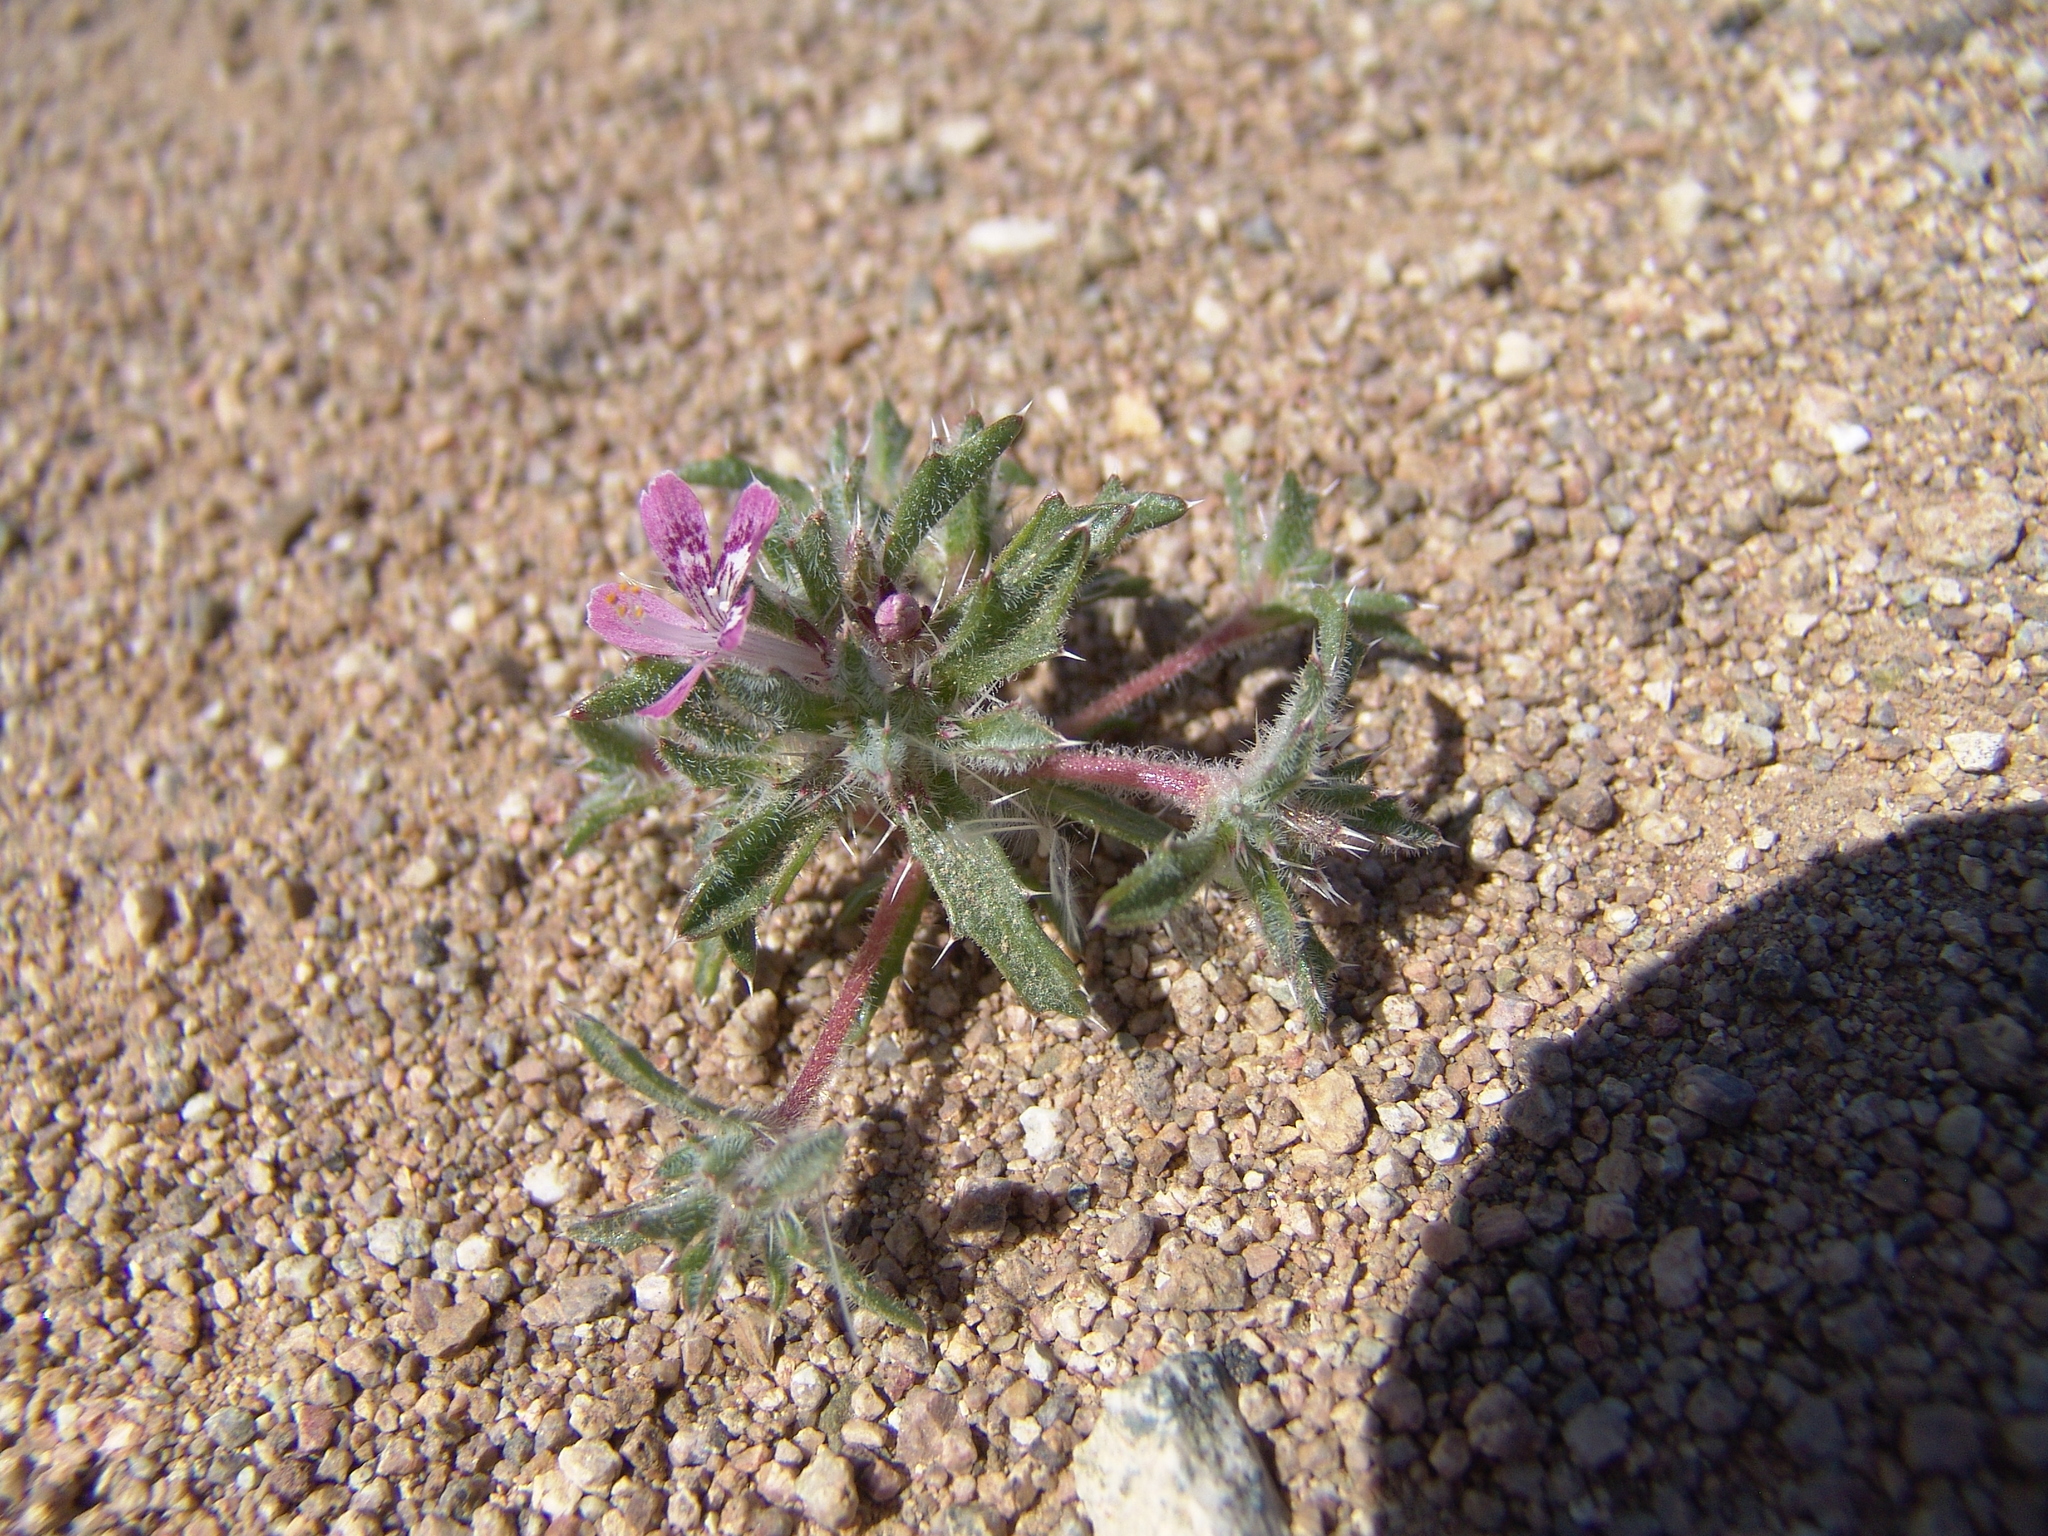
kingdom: Plantae
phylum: Tracheophyta
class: Magnoliopsida
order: Ericales
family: Polemoniaceae
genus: Loeseliastrum
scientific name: Loeseliastrum matthewsii
